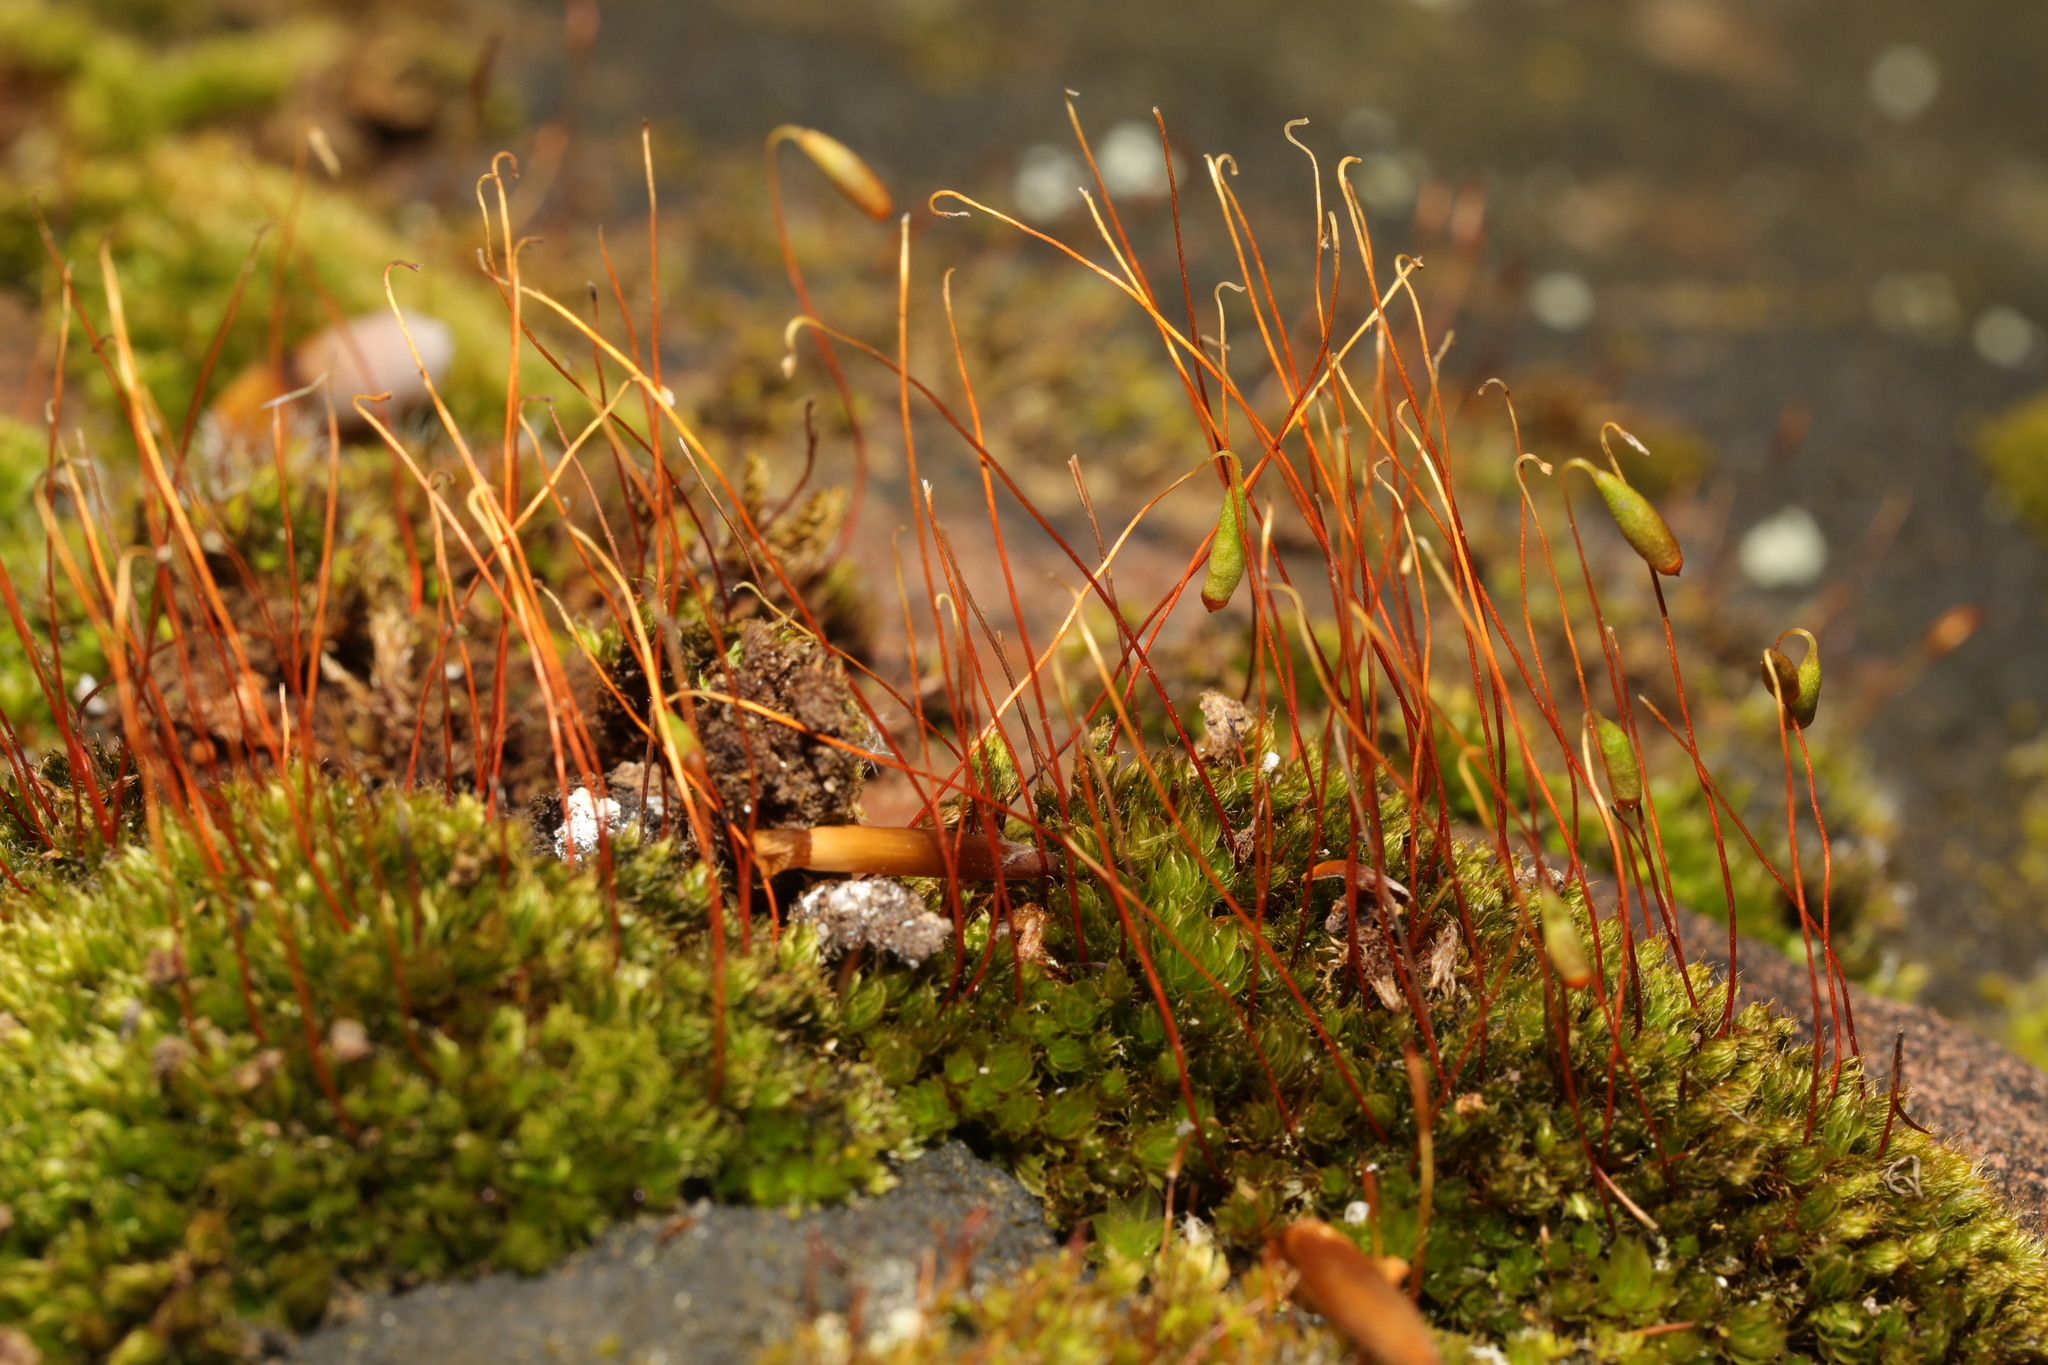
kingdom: Plantae
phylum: Bryophyta
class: Bryopsida
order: Bryales
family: Bryaceae
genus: Rosulabryum
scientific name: Rosulabryum capillare
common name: Capillary thread-moss
